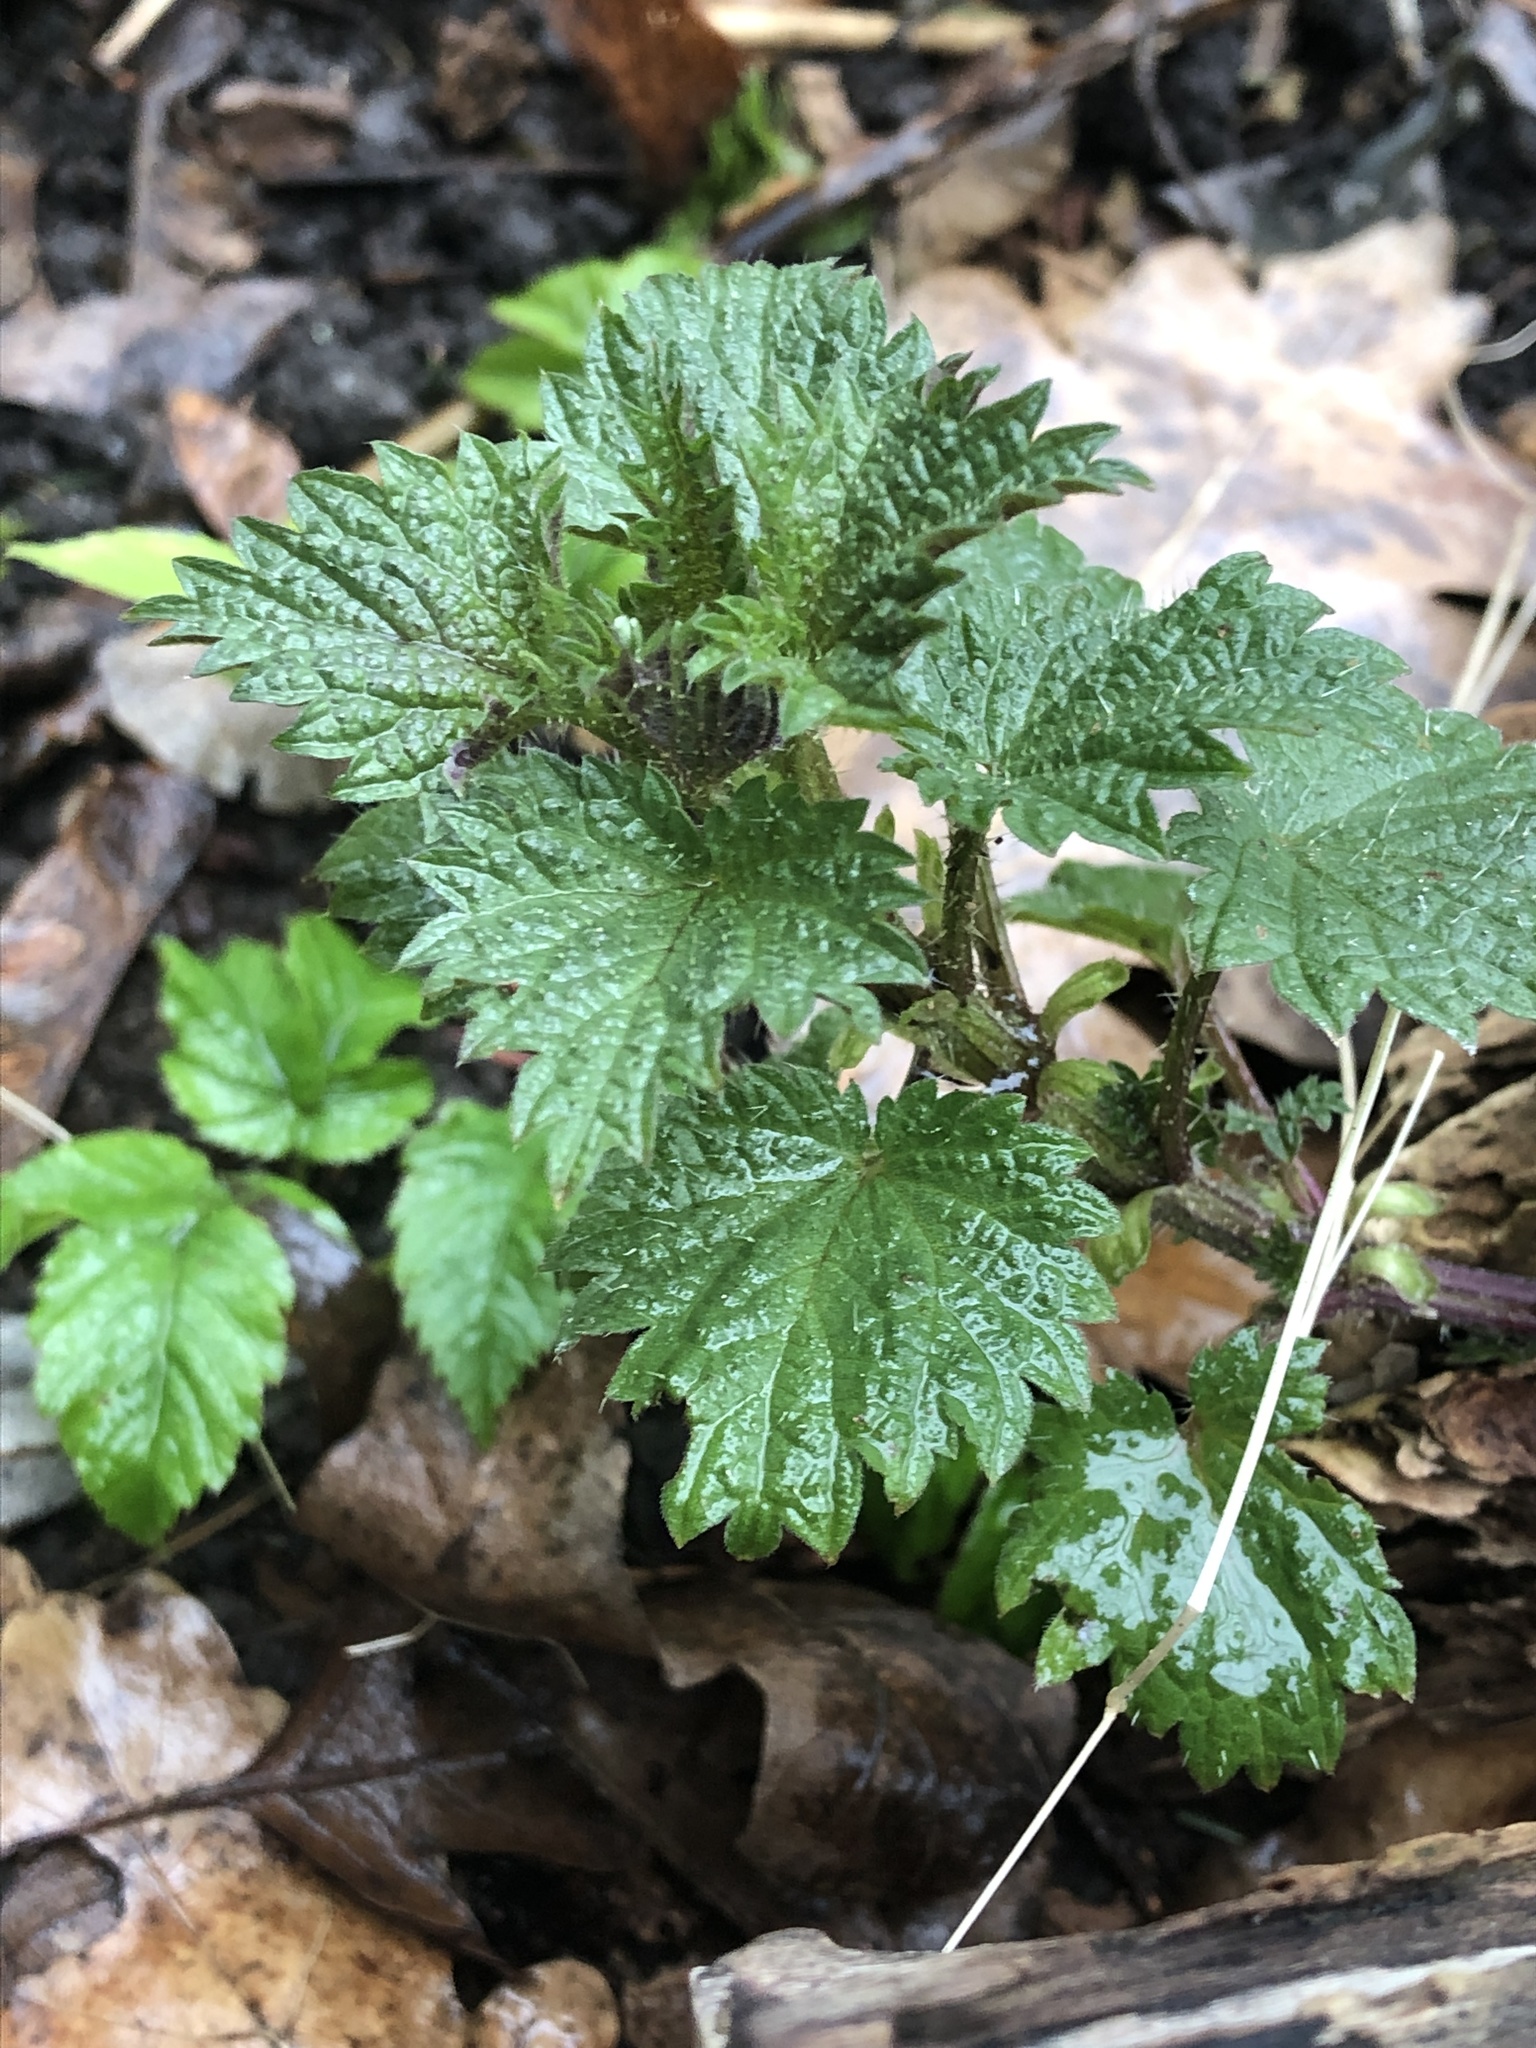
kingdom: Plantae
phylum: Tracheophyta
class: Magnoliopsida
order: Rosales
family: Urticaceae
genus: Urtica
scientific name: Urtica urens
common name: Dwarf nettle
